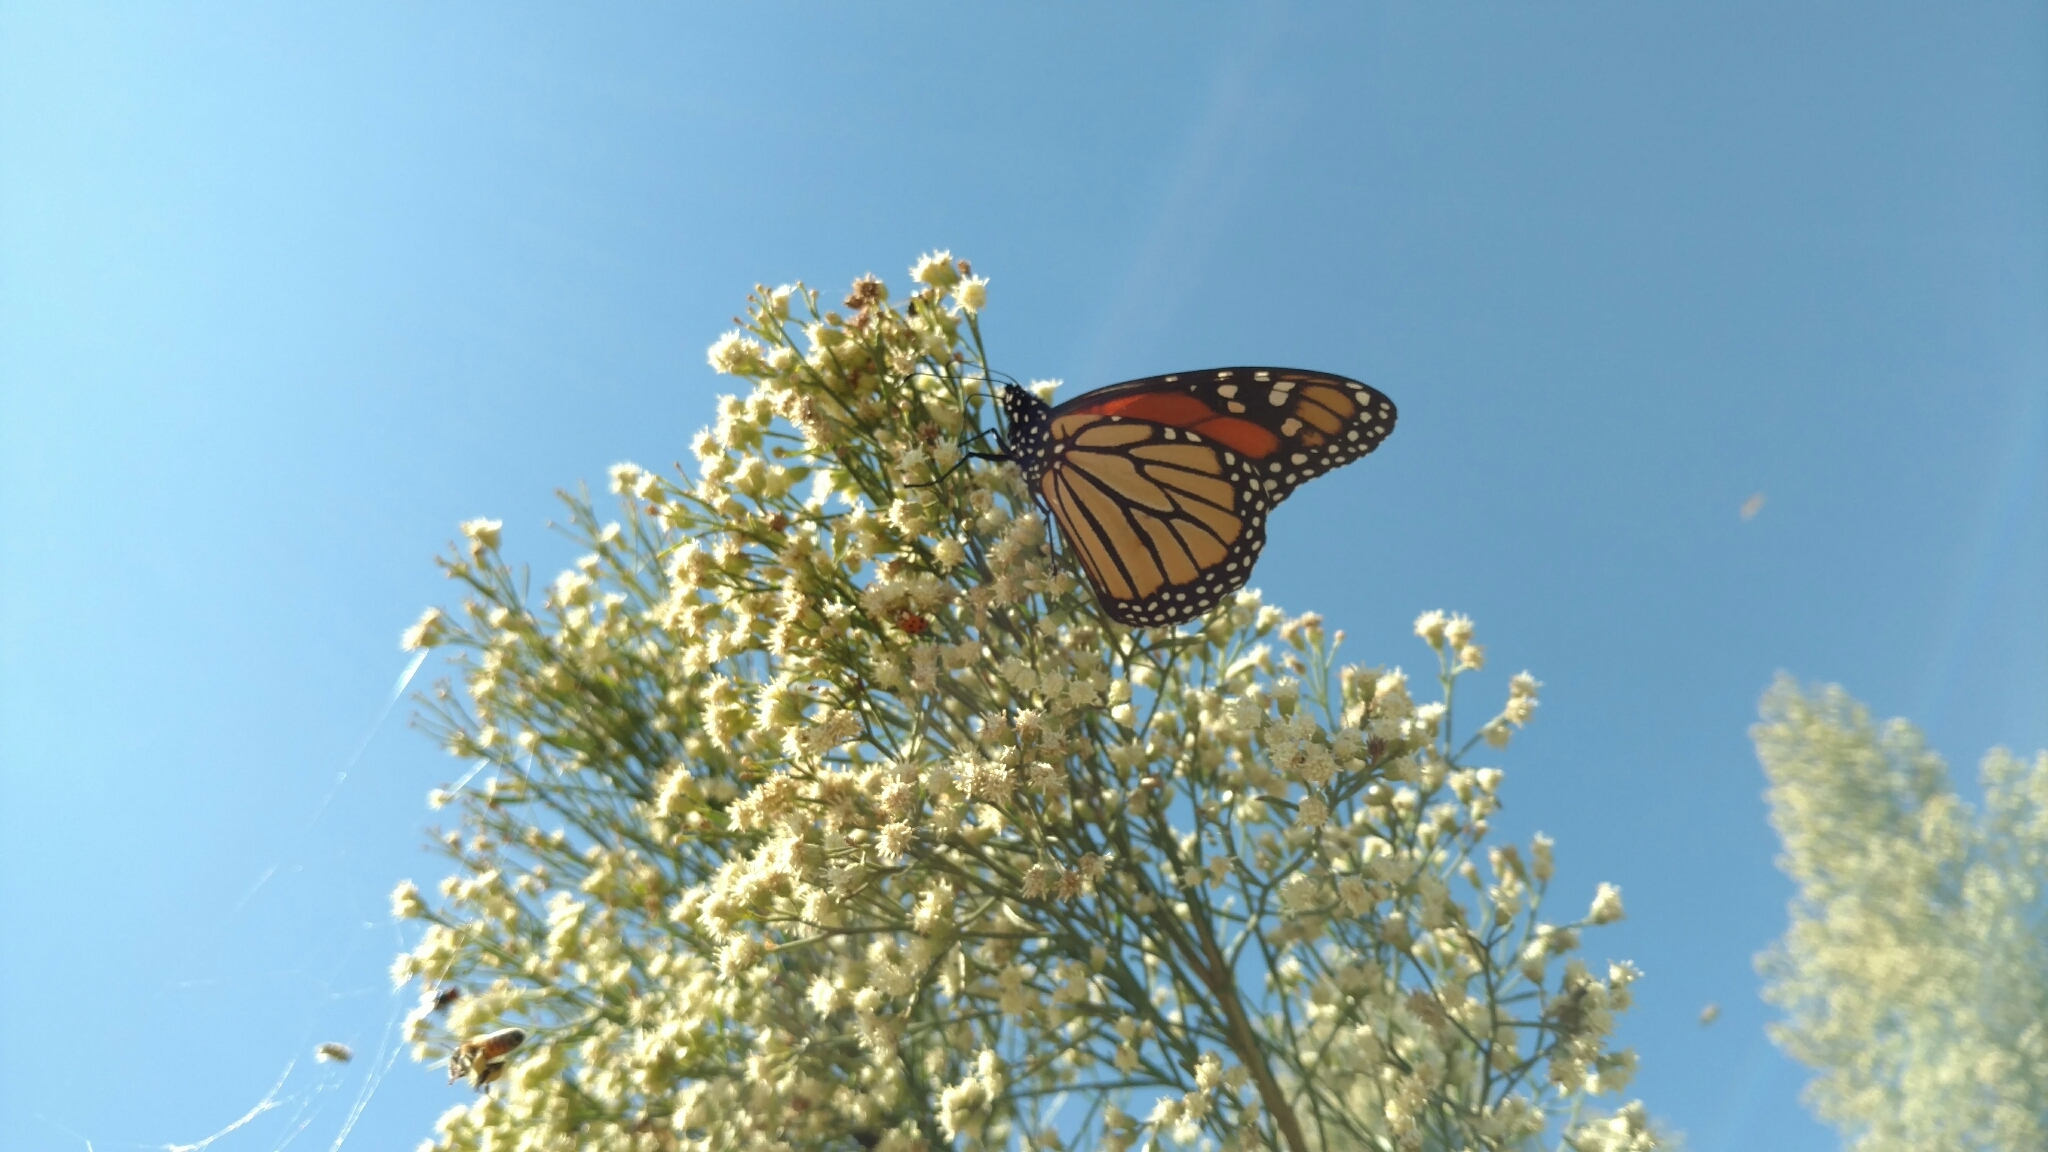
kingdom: Animalia
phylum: Arthropoda
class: Insecta
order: Lepidoptera
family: Nymphalidae
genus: Danaus
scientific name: Danaus plexippus
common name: Monarch
